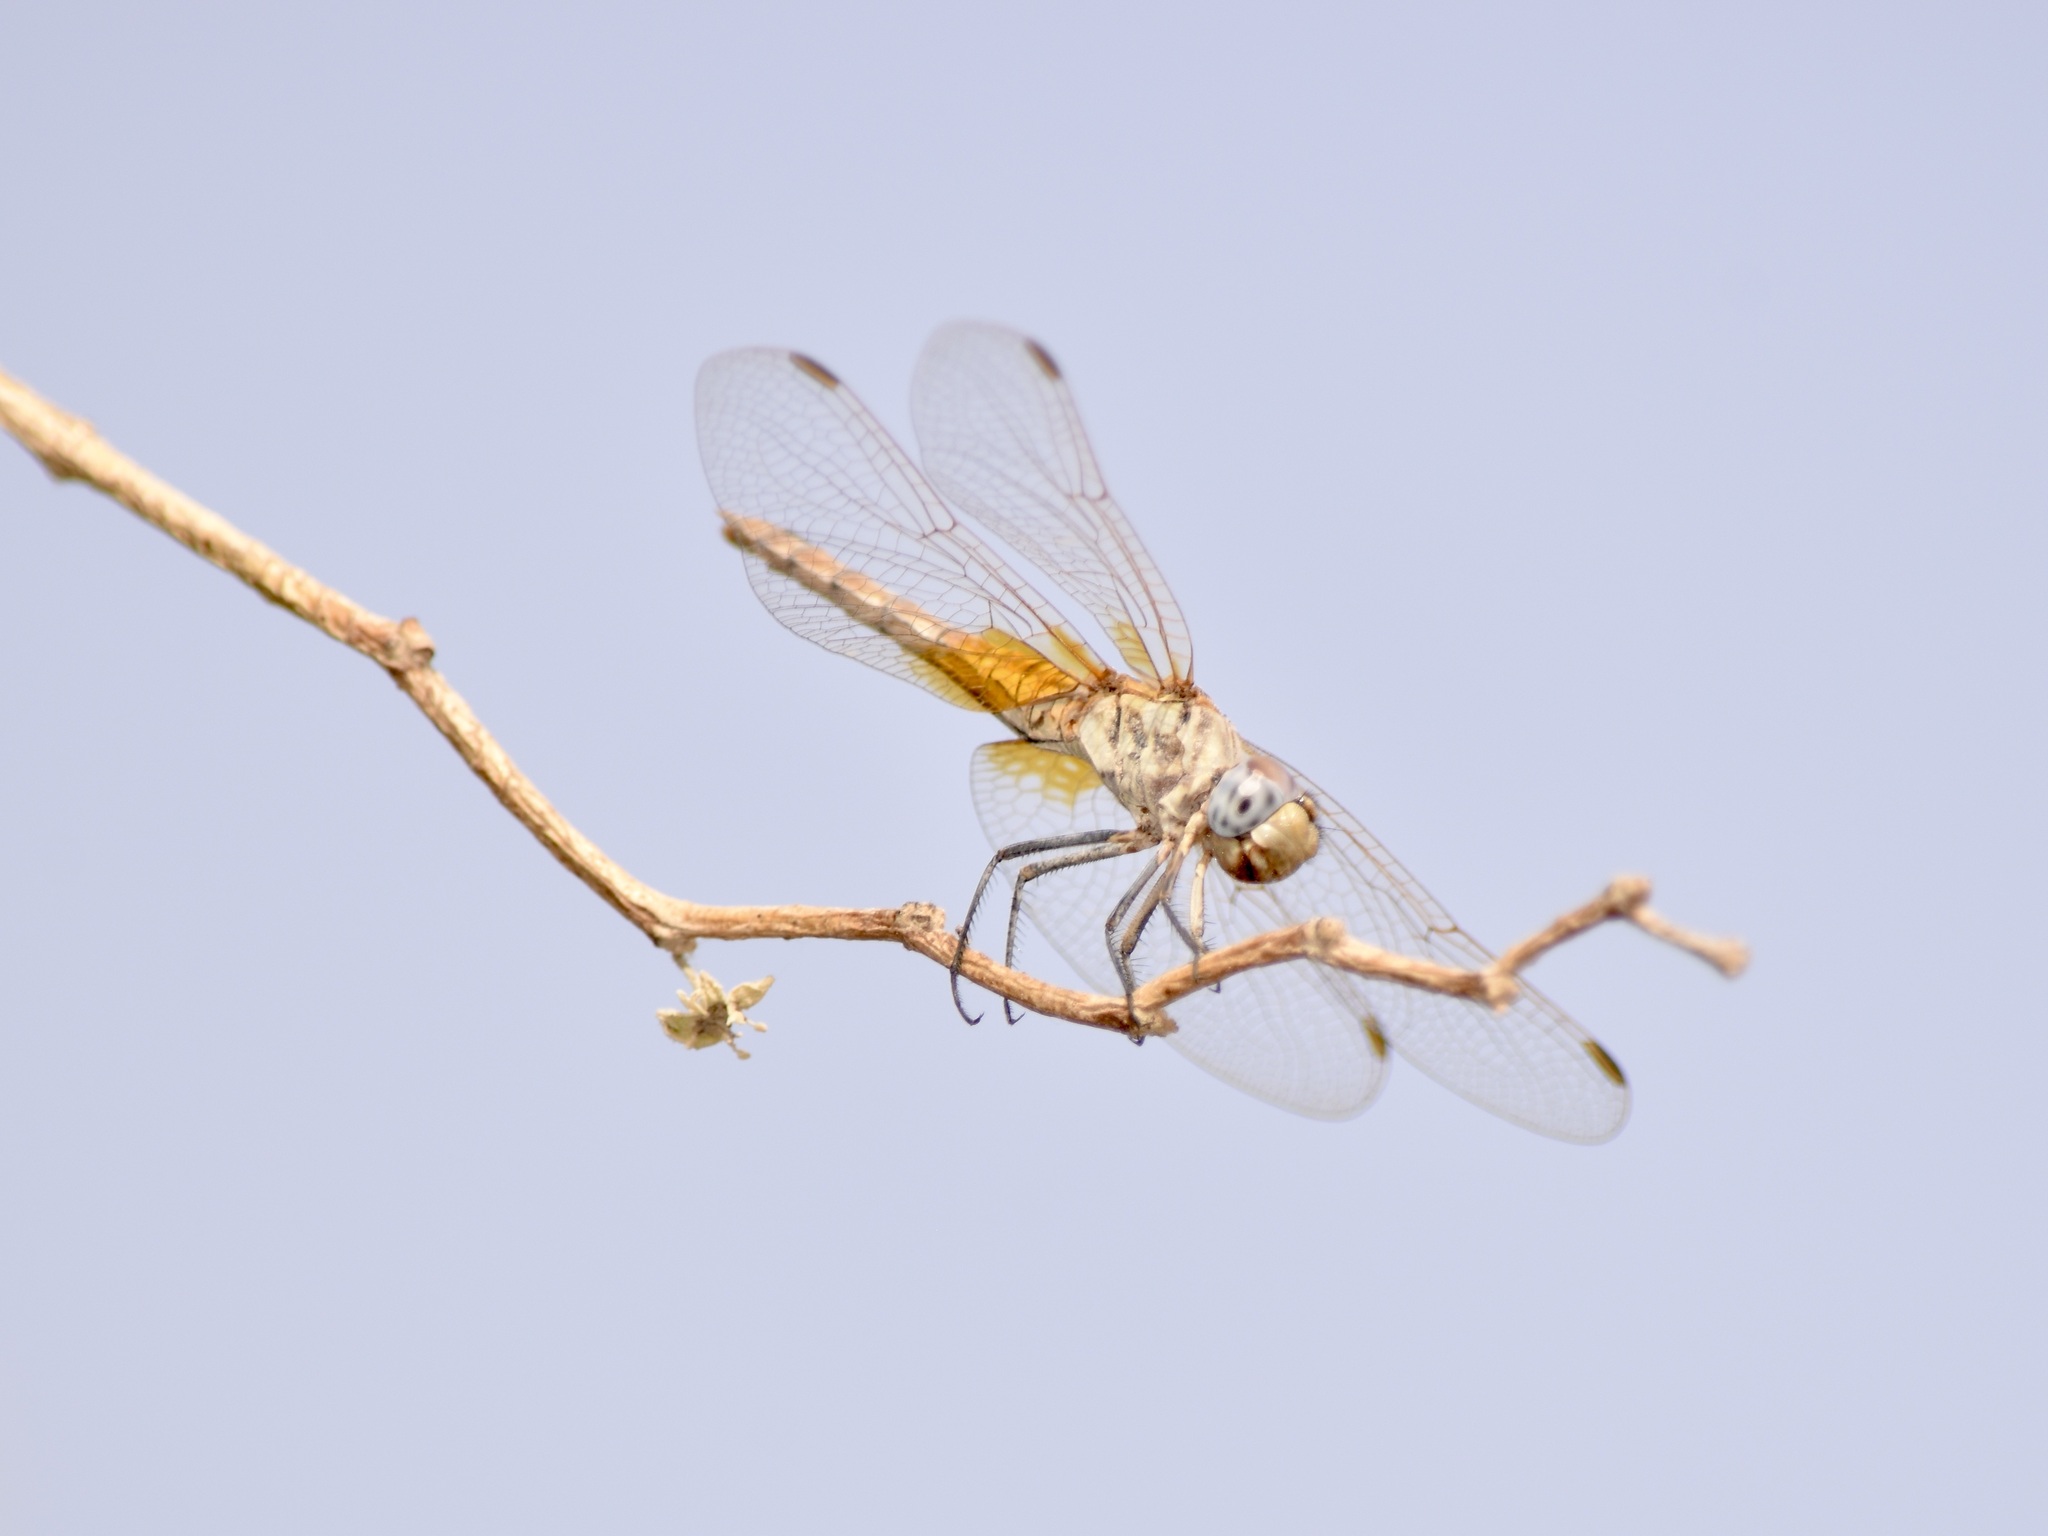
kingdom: Animalia
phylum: Arthropoda
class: Insecta
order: Odonata
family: Libellulidae
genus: Trithemis
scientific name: Trithemis annulata
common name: Violet dropwing
